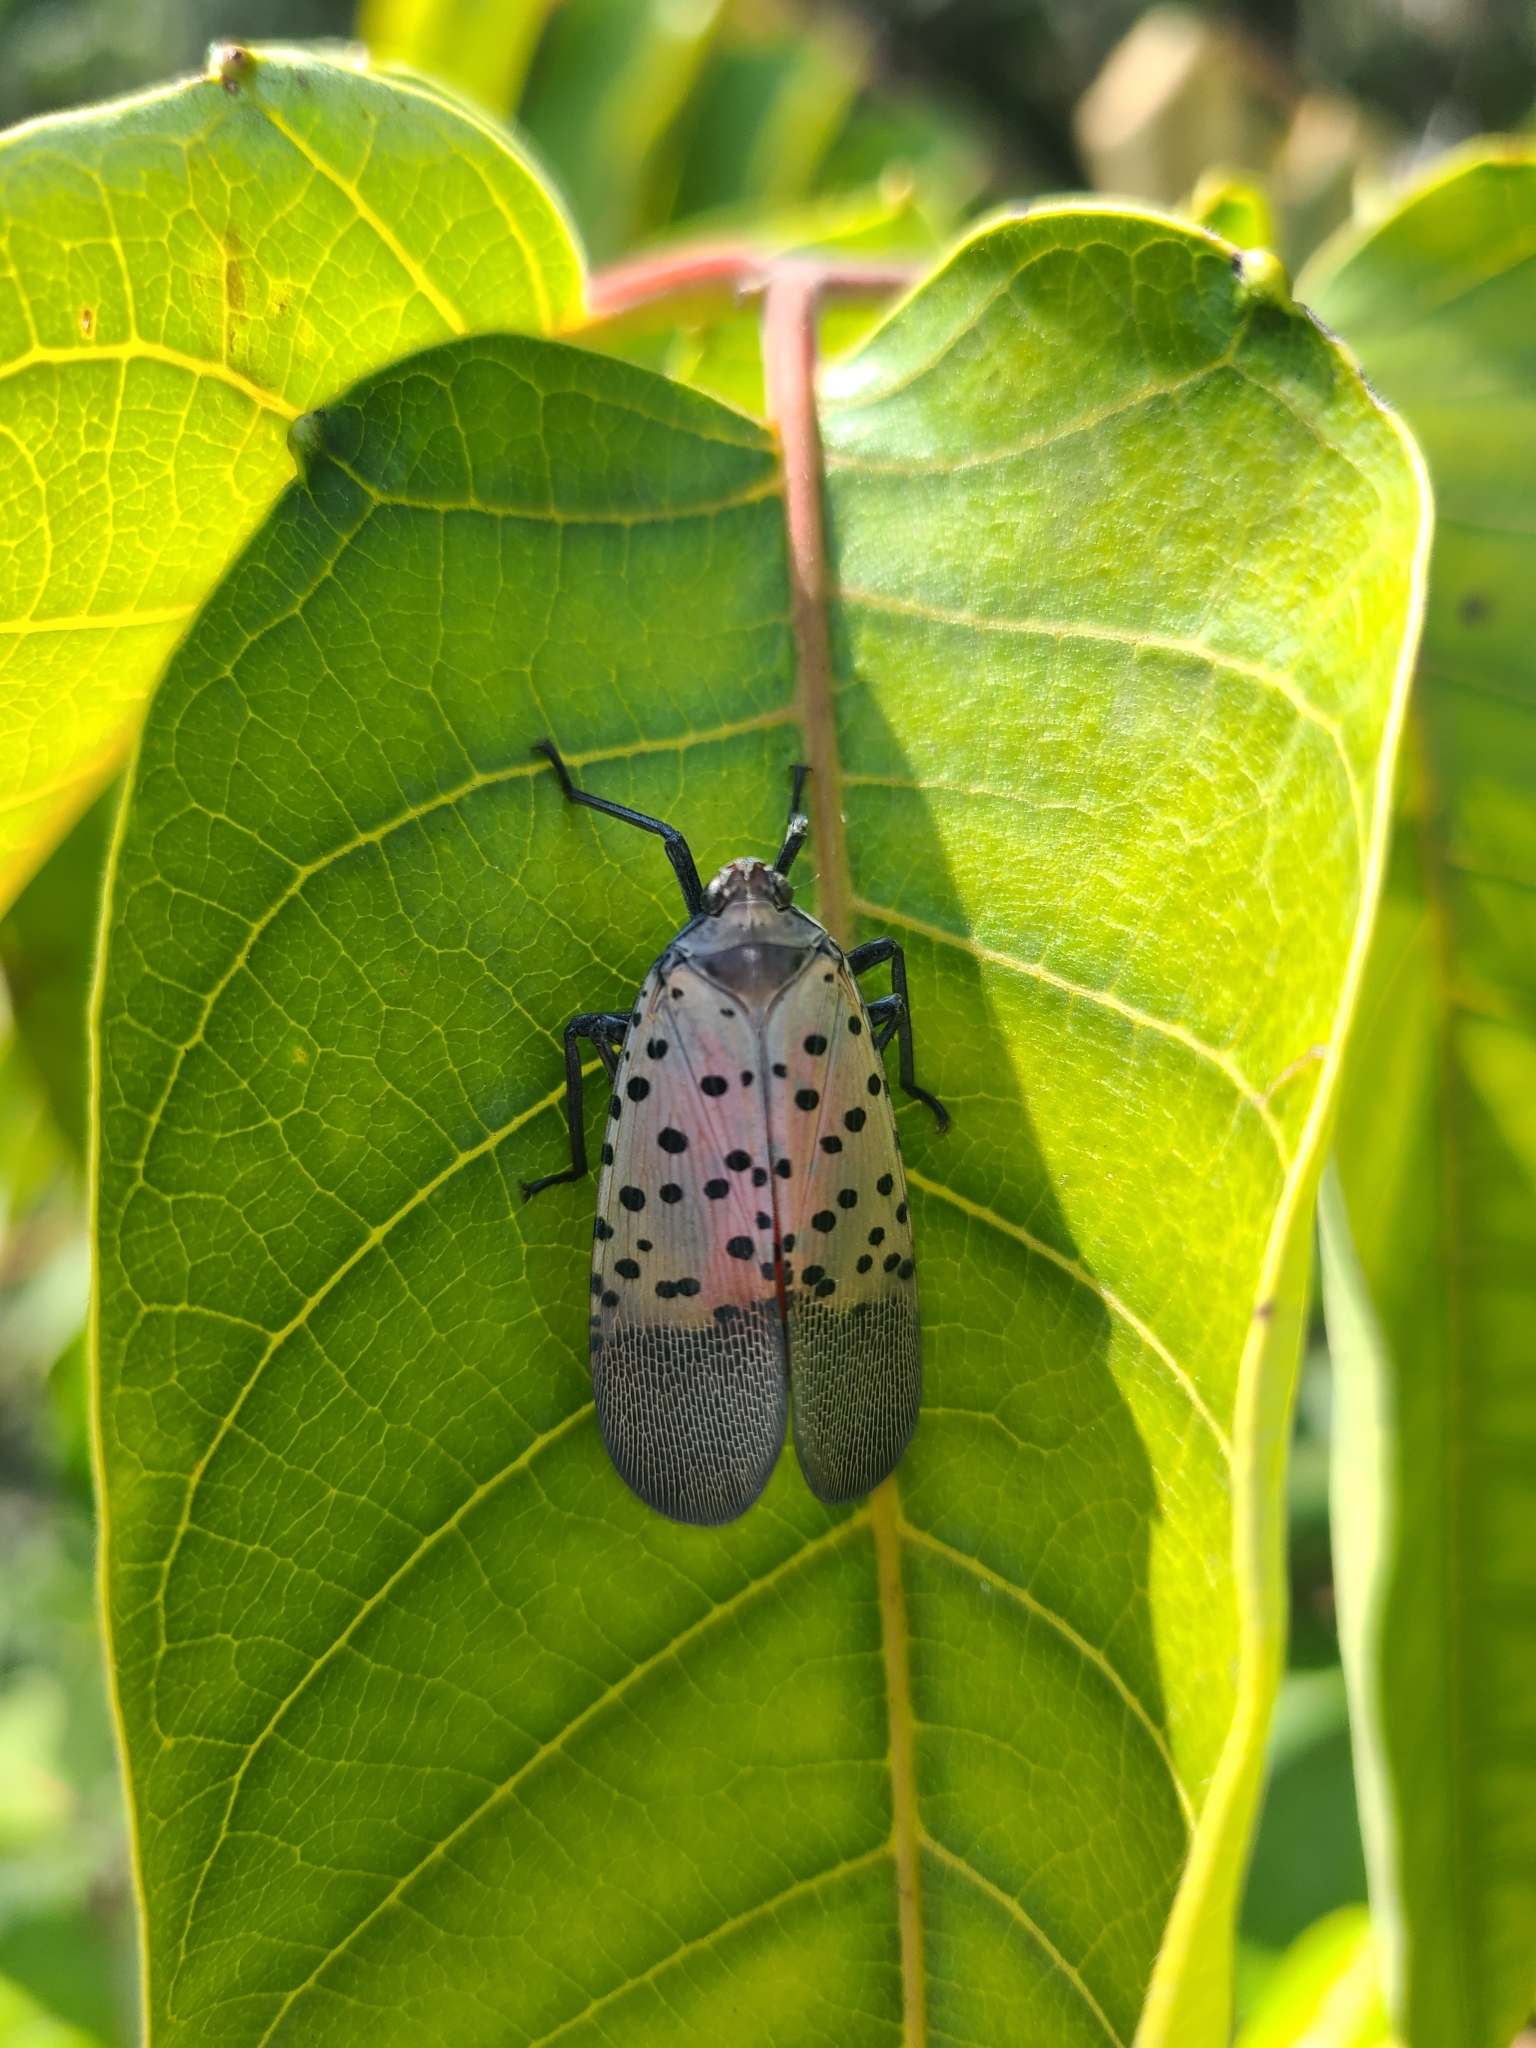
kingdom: Animalia
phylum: Arthropoda
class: Insecta
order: Hemiptera
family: Fulgoridae
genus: Lycorma
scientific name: Lycorma delicatula
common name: Spotted lanternfly
